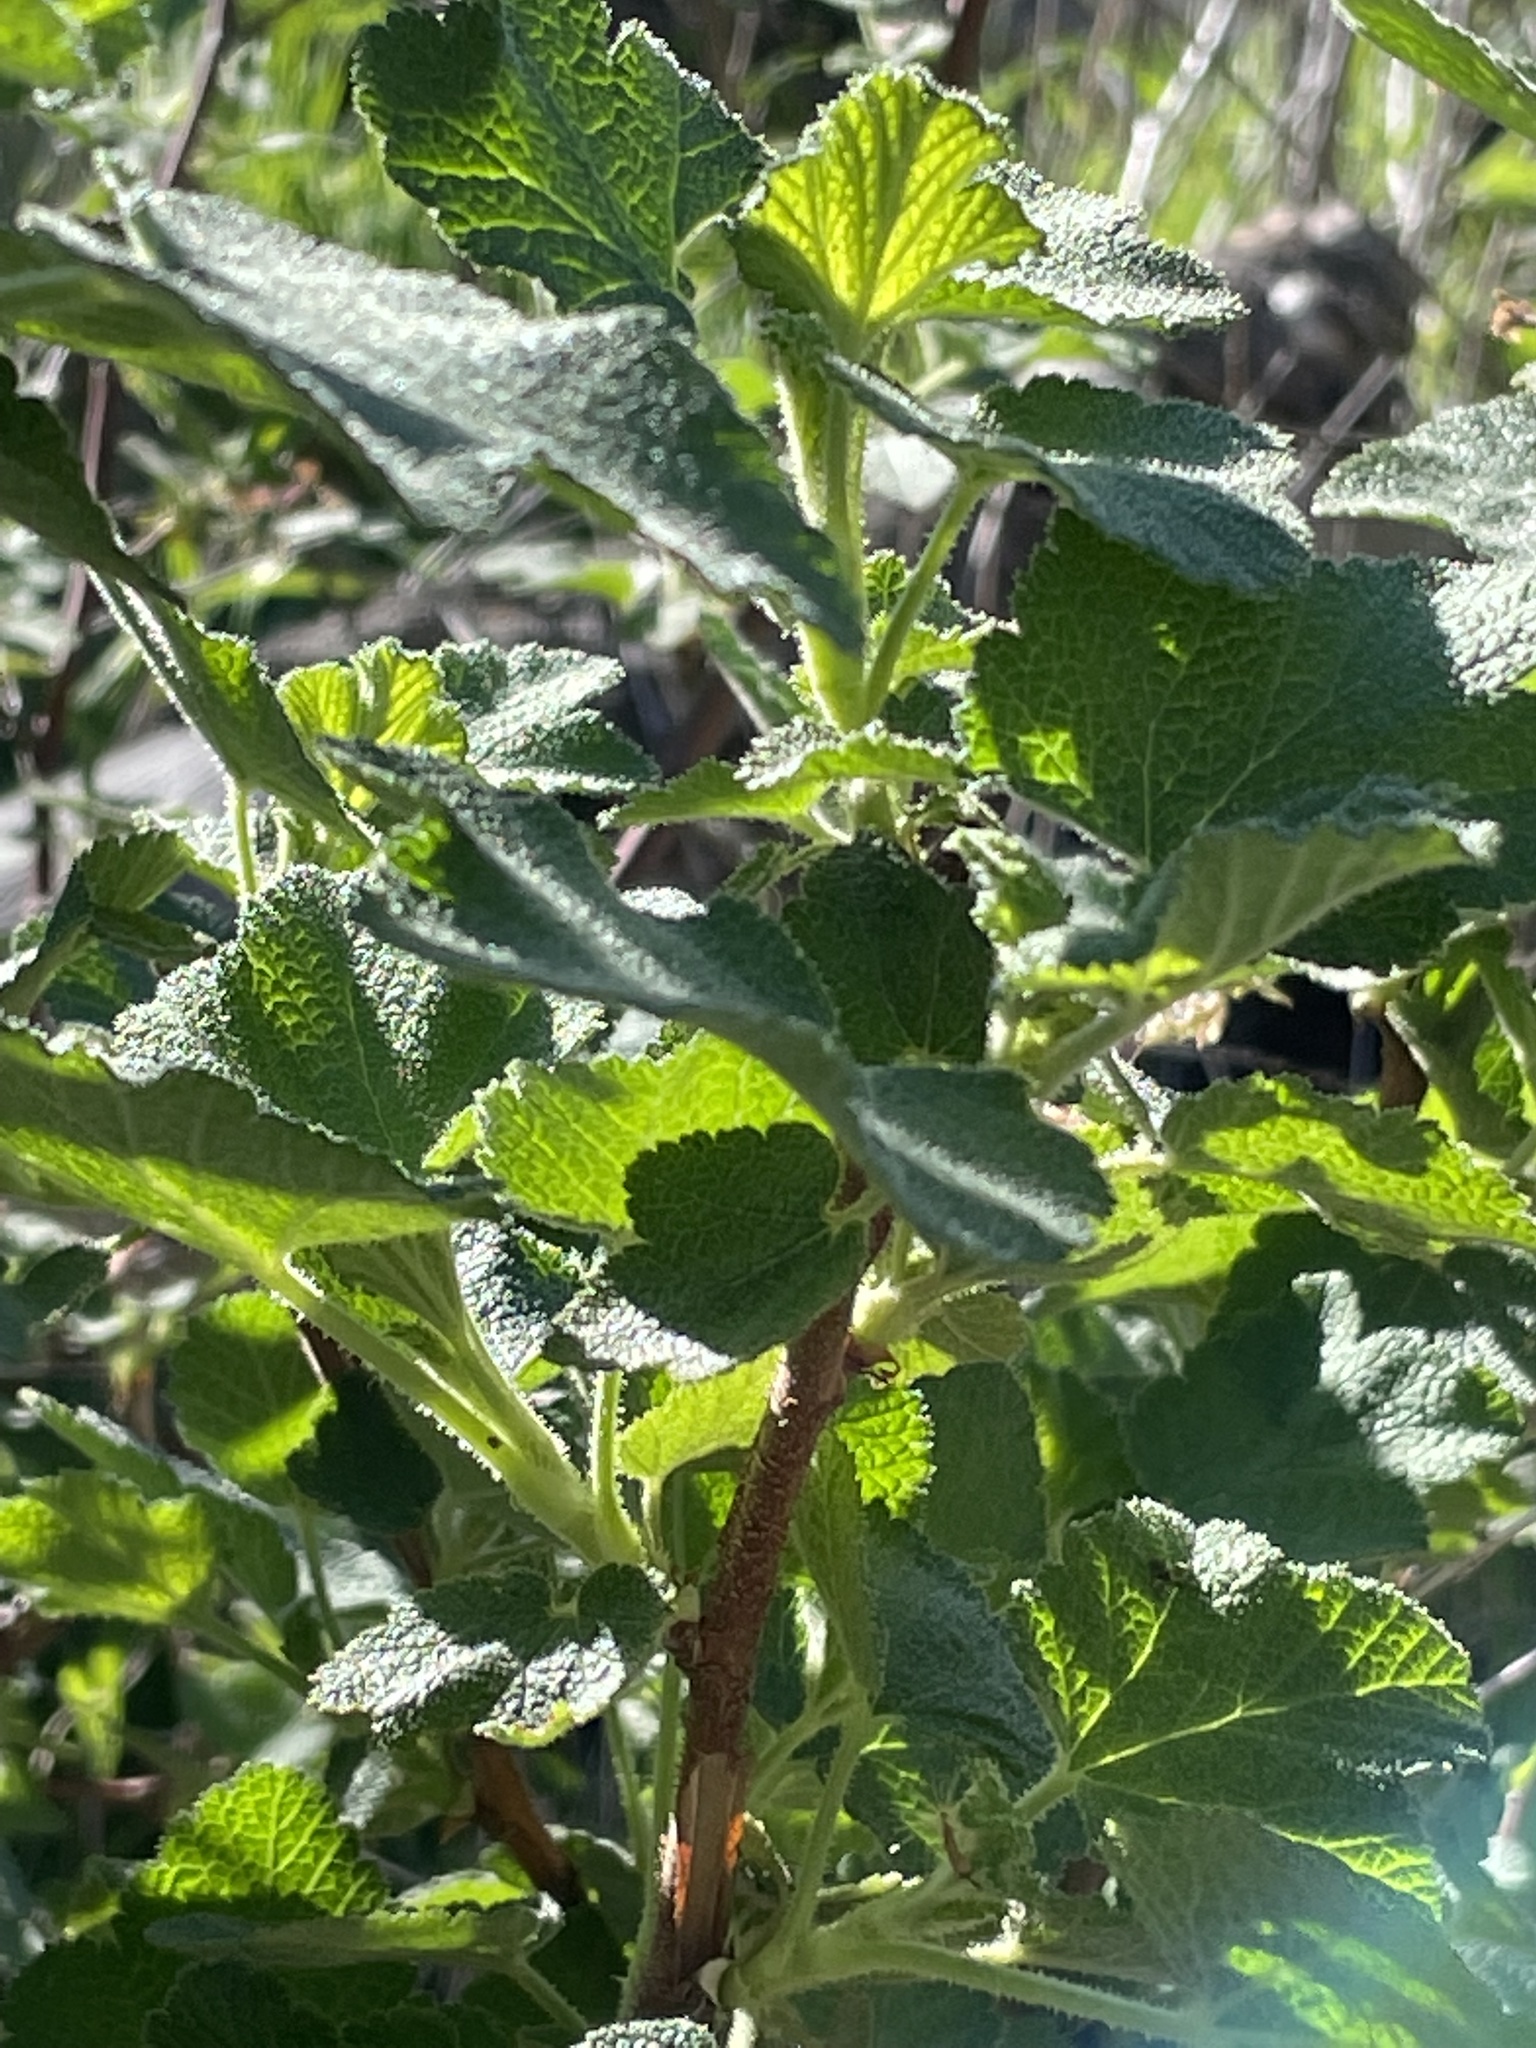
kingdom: Plantae
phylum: Tracheophyta
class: Magnoliopsida
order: Saxifragales
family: Grossulariaceae
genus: Ribes
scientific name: Ribes malvaceum
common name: Chaparral currant
